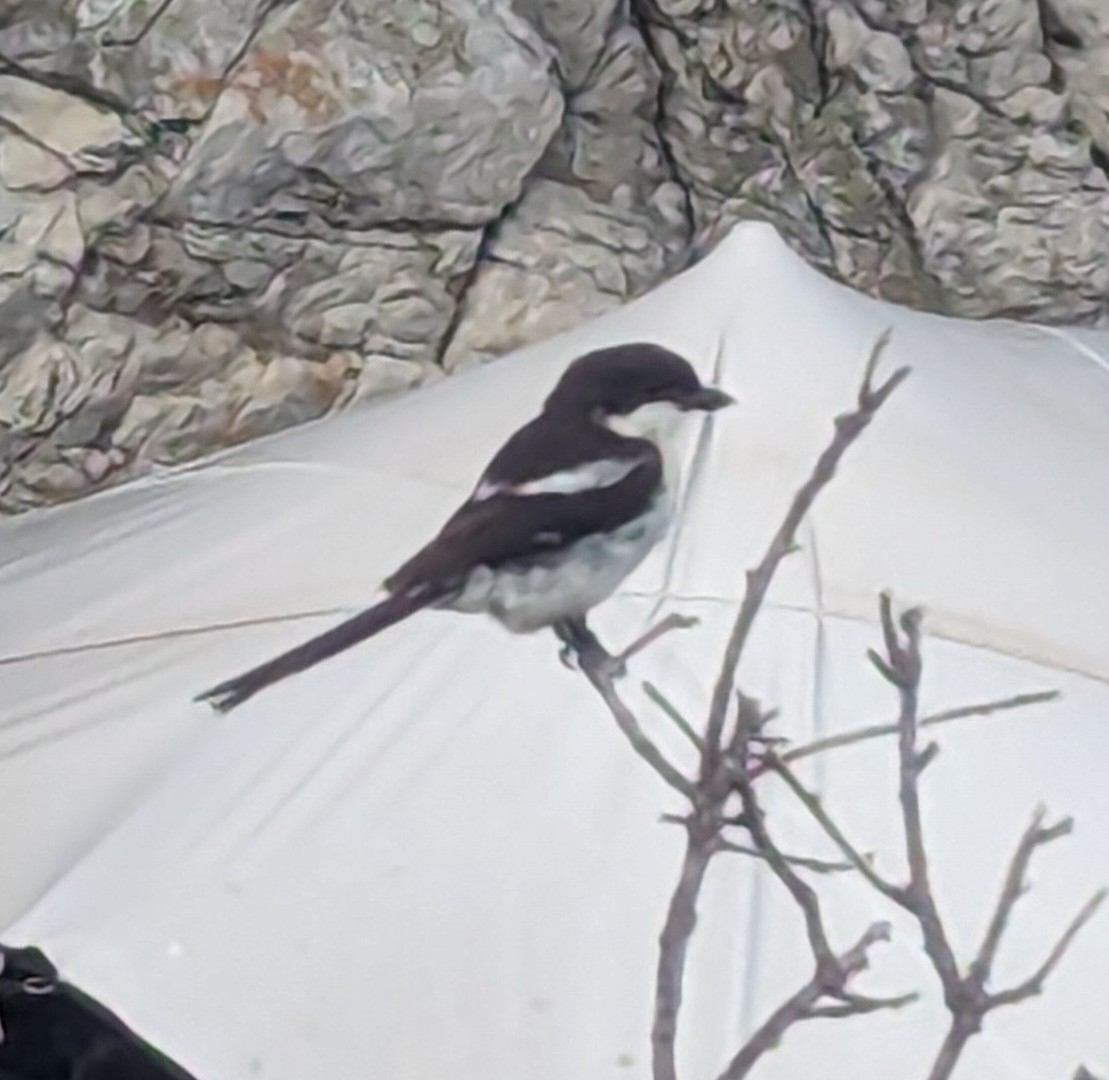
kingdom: Animalia
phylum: Chordata
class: Aves
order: Passeriformes
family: Laniidae
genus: Lanius
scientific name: Lanius collaris
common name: Southern fiscal
